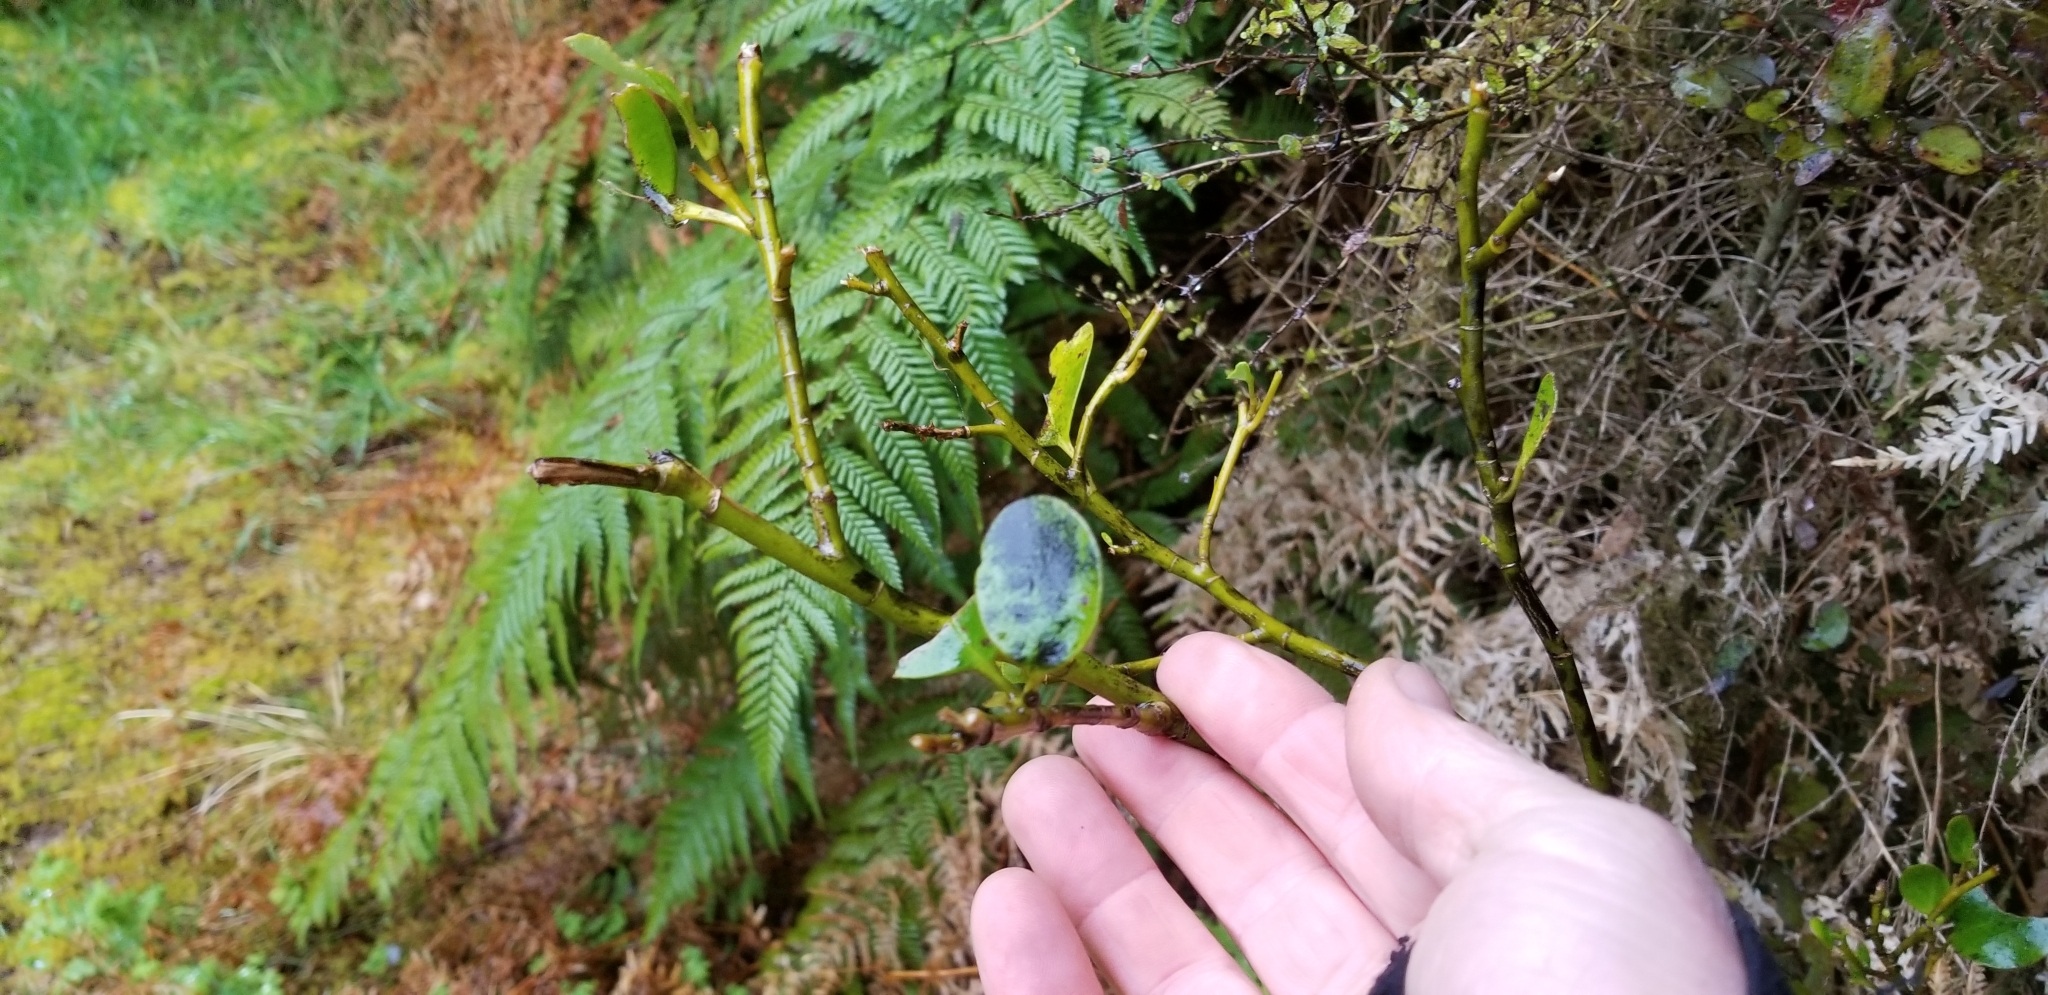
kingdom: Plantae
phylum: Tracheophyta
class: Magnoliopsida
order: Apiales
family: Griseliniaceae
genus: Griselinia
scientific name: Griselinia littoralis
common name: New zealand broadleaf
